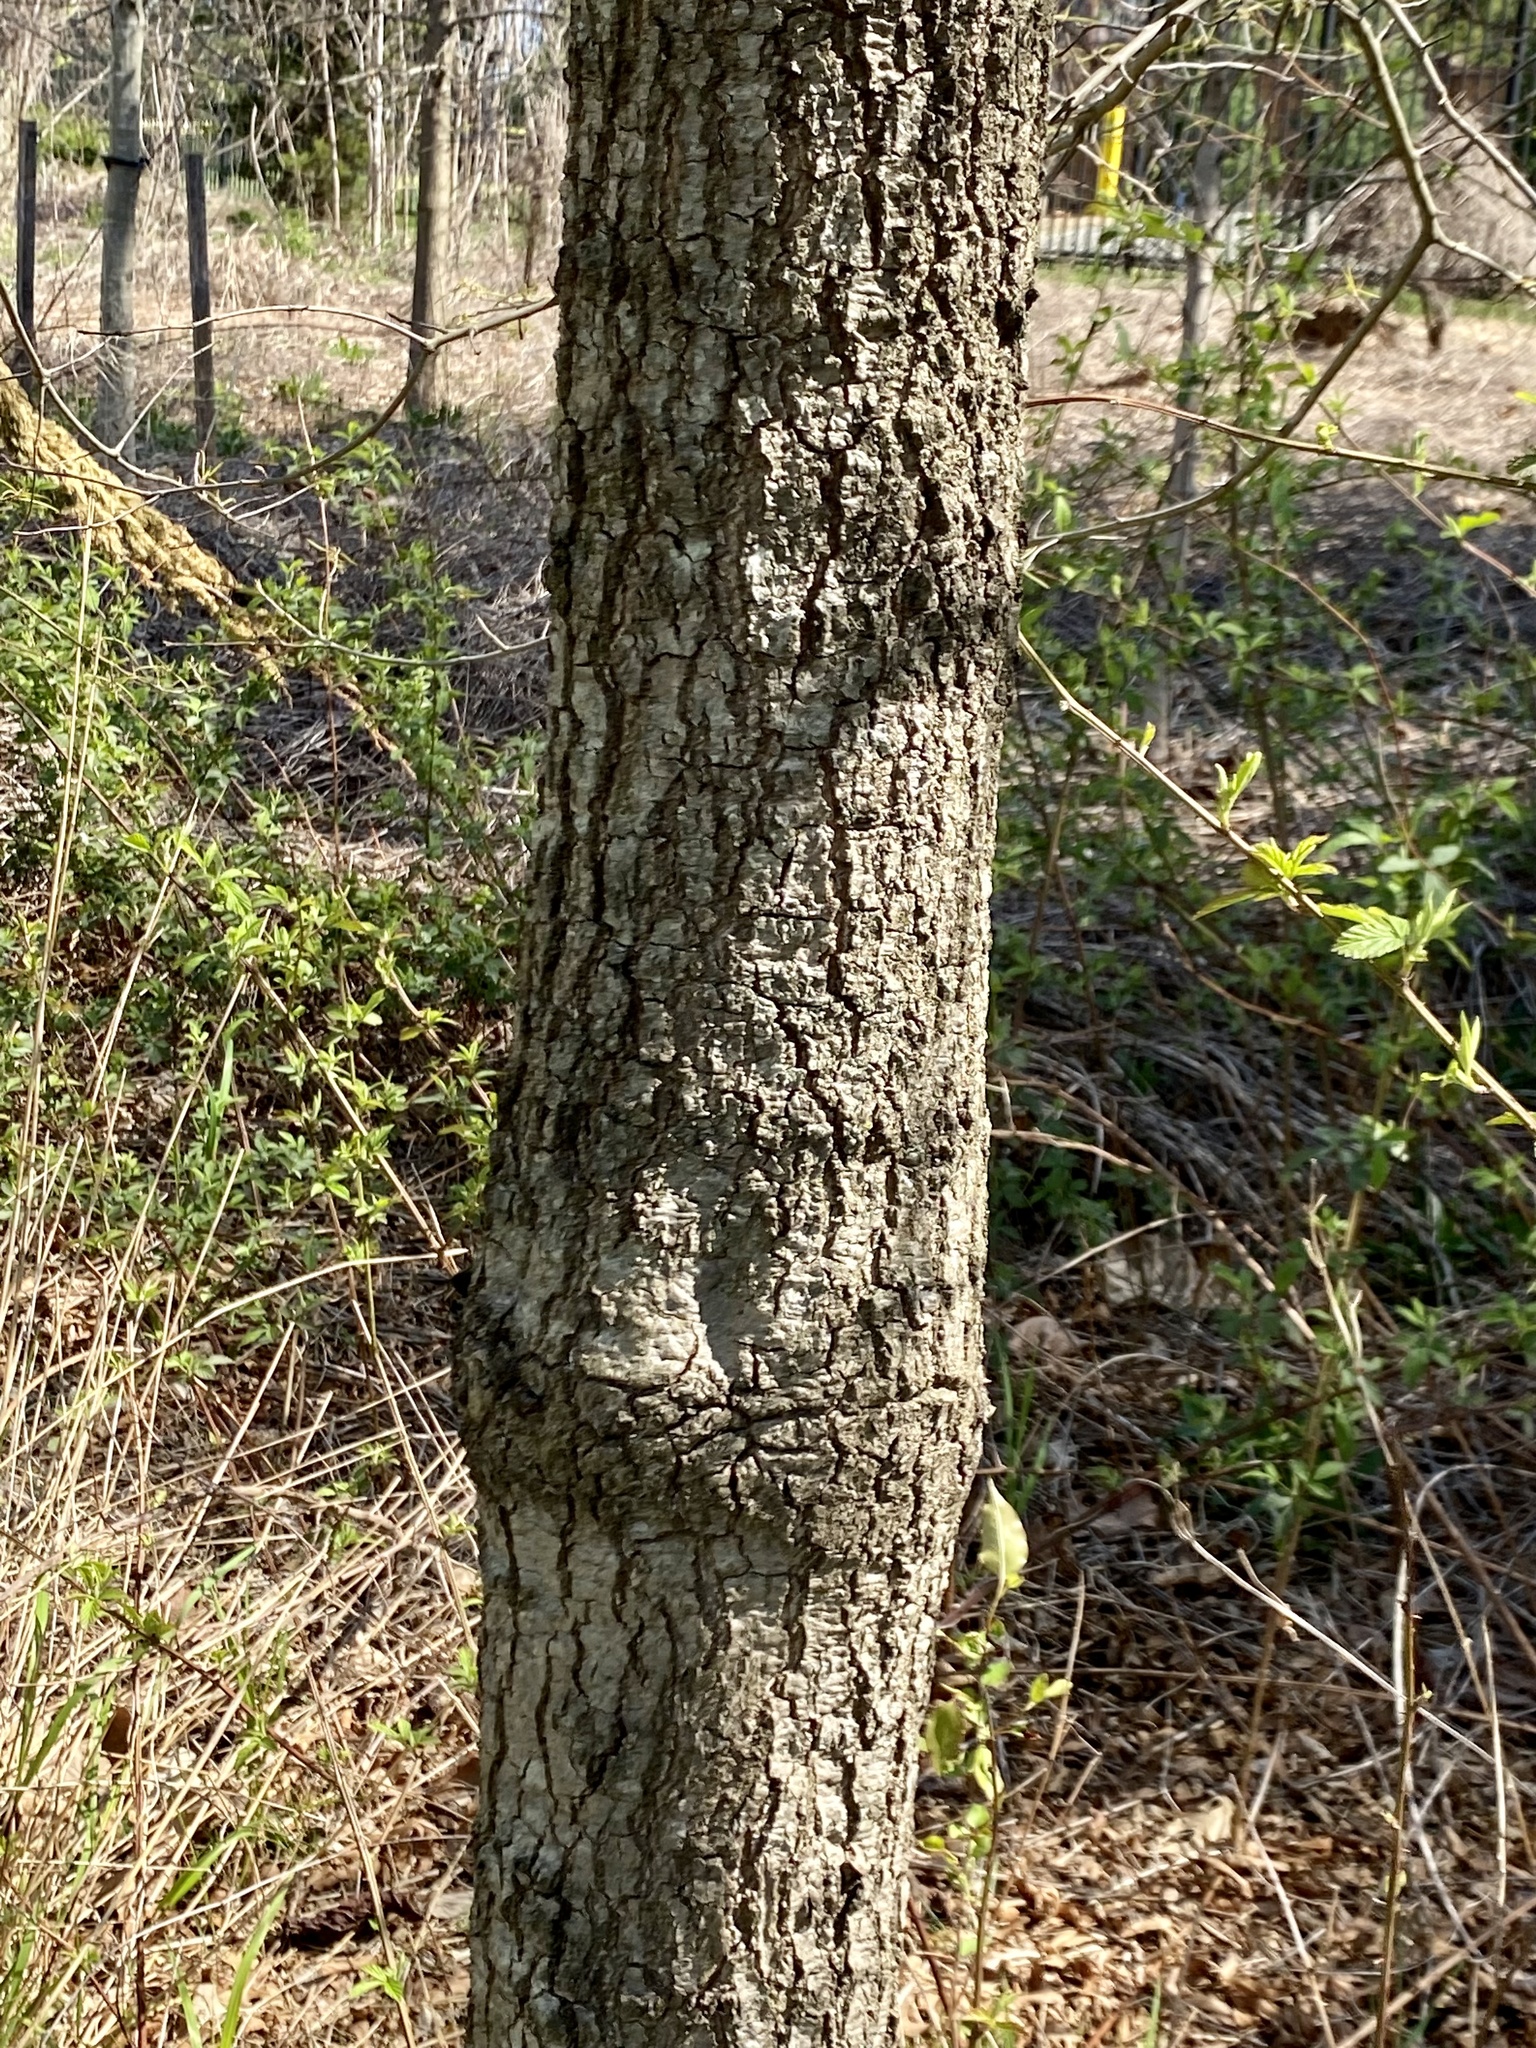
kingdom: Plantae
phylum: Tracheophyta
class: Magnoliopsida
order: Fagales
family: Fagaceae
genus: Quercus
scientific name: Quercus phellos
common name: Willow oak
